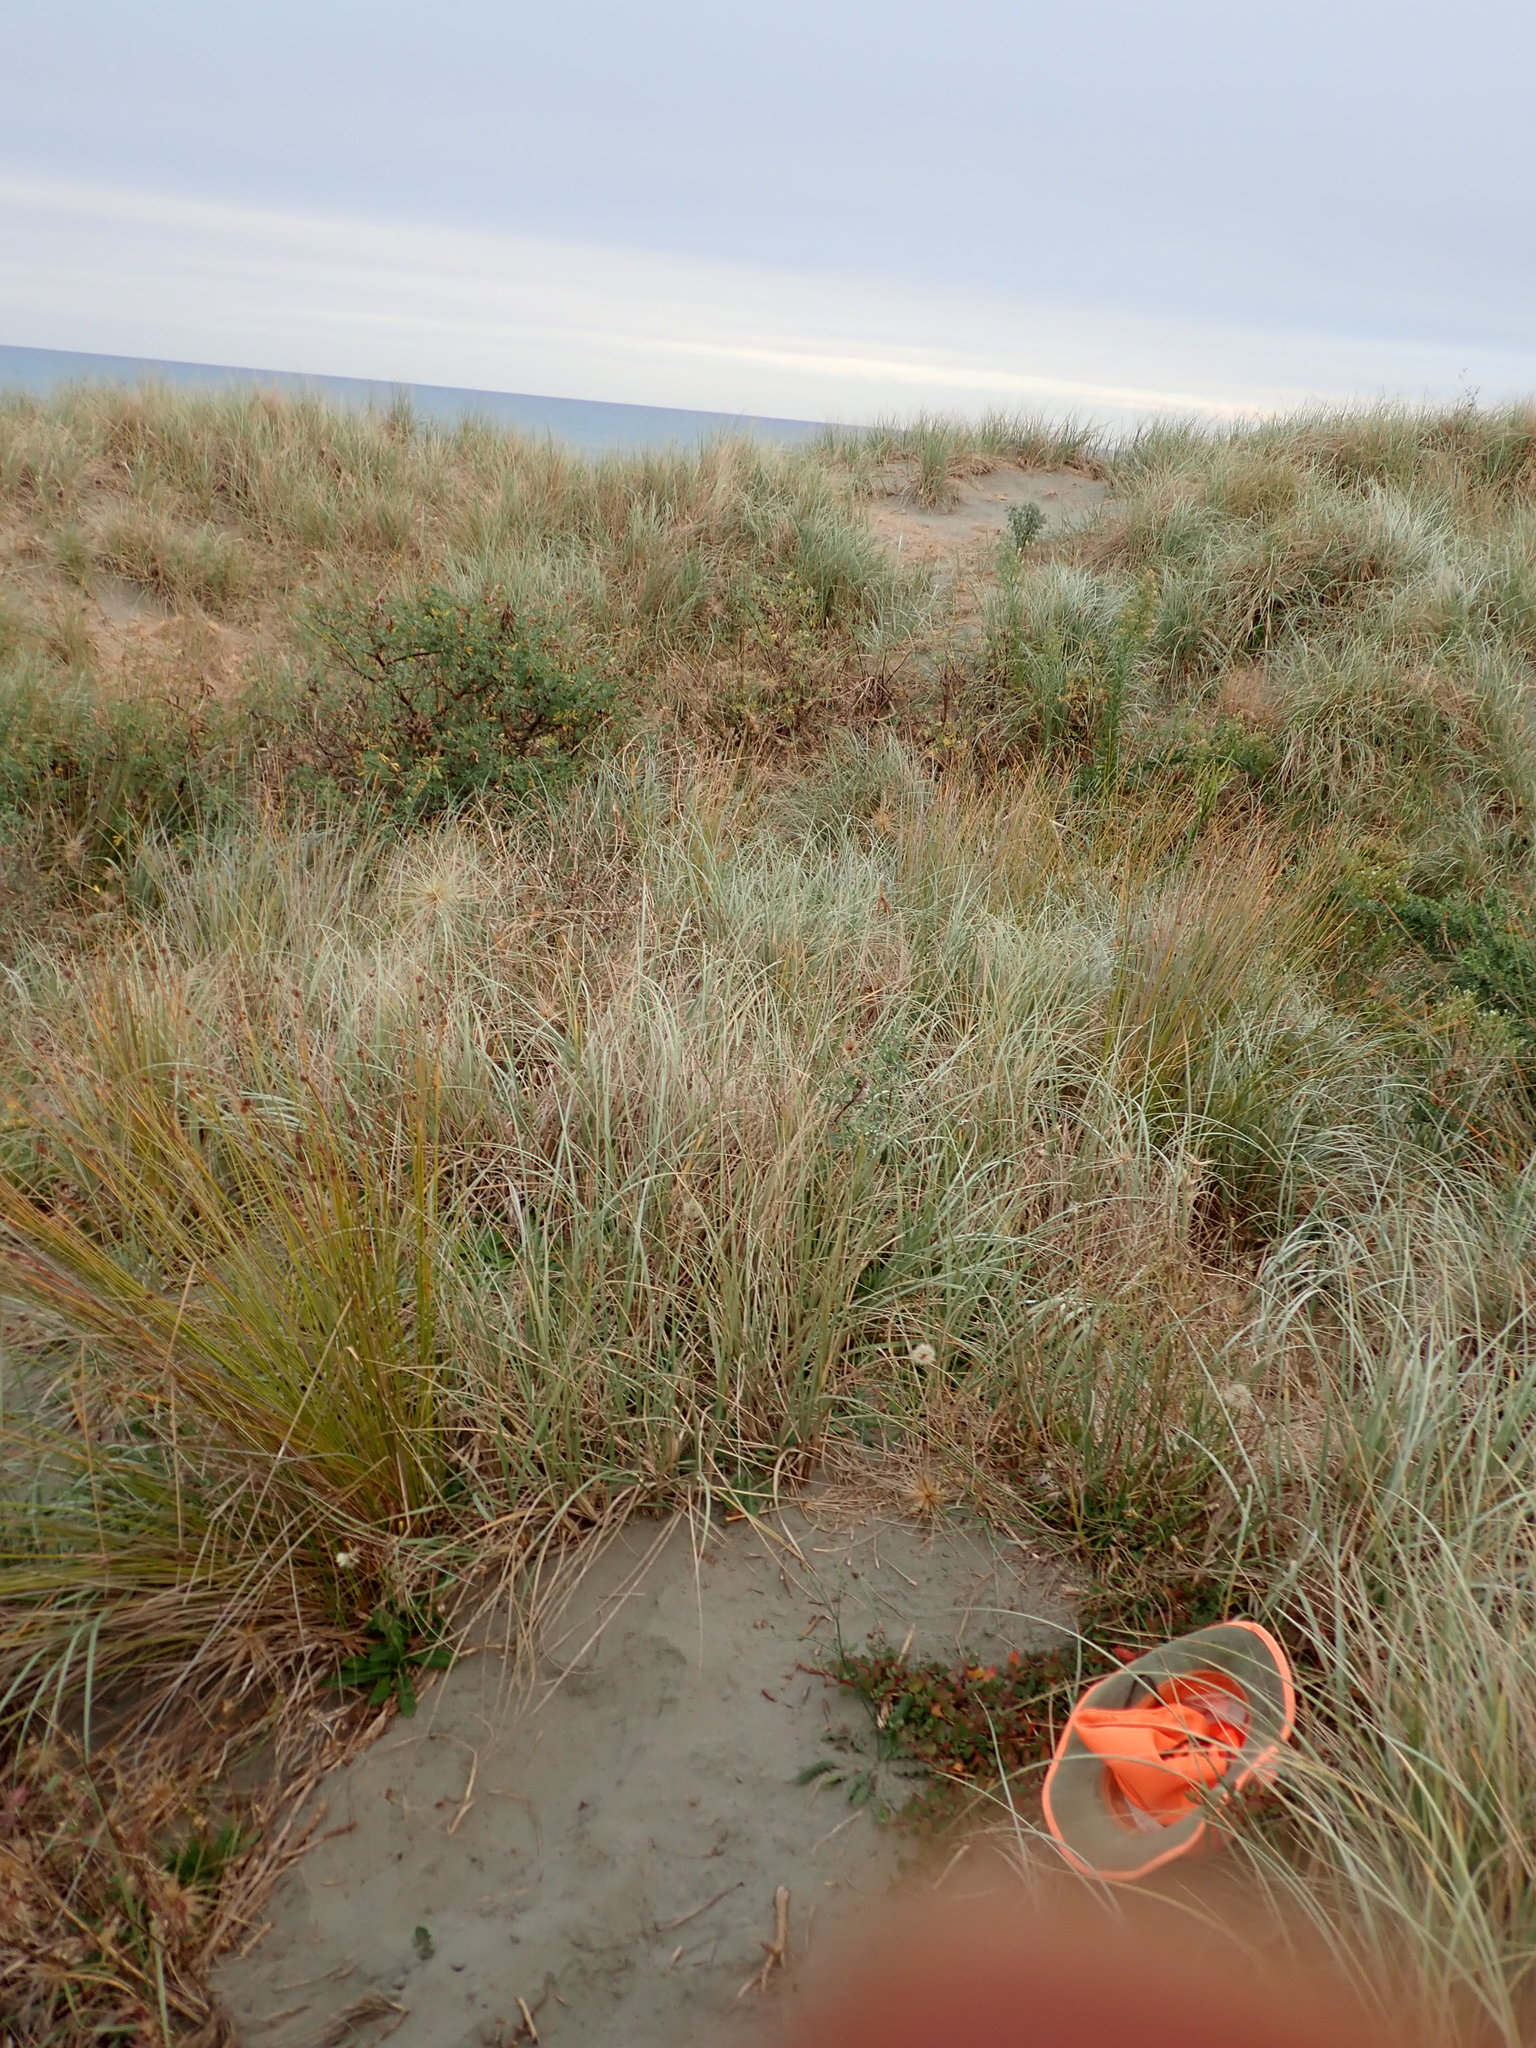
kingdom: Plantae
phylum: Tracheophyta
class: Magnoliopsida
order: Caryophyllales
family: Aizoaceae
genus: Tetragonia
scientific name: Tetragonia implexicoma
